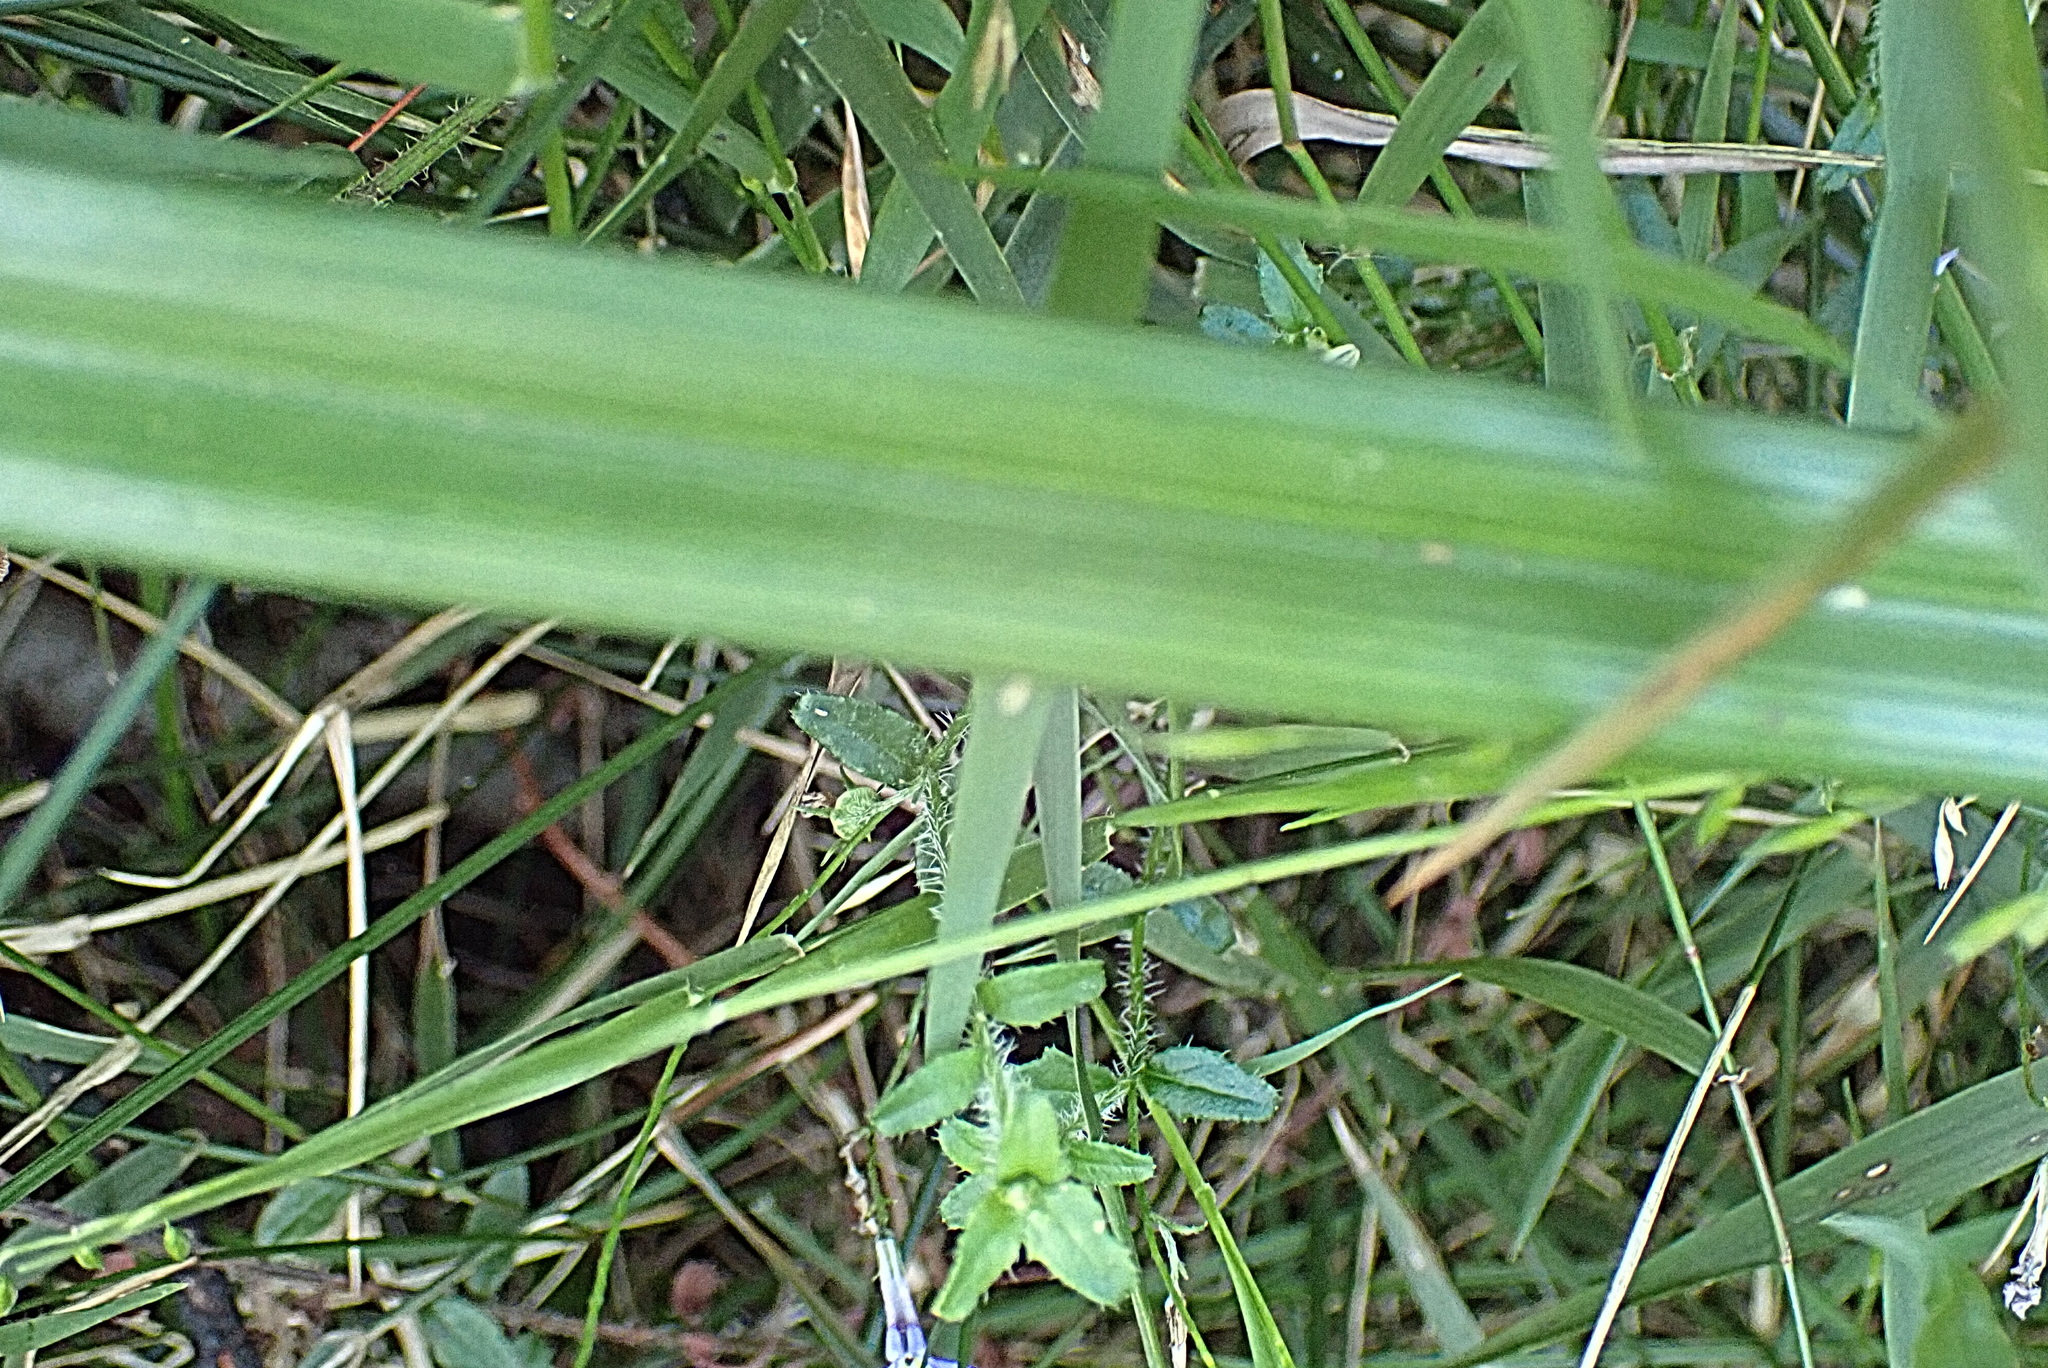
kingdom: Plantae
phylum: Tracheophyta
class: Liliopsida
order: Asparagales
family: Asphodelaceae
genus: Kniphofia
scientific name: Kniphofia uvaria
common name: Red-hot-poker
